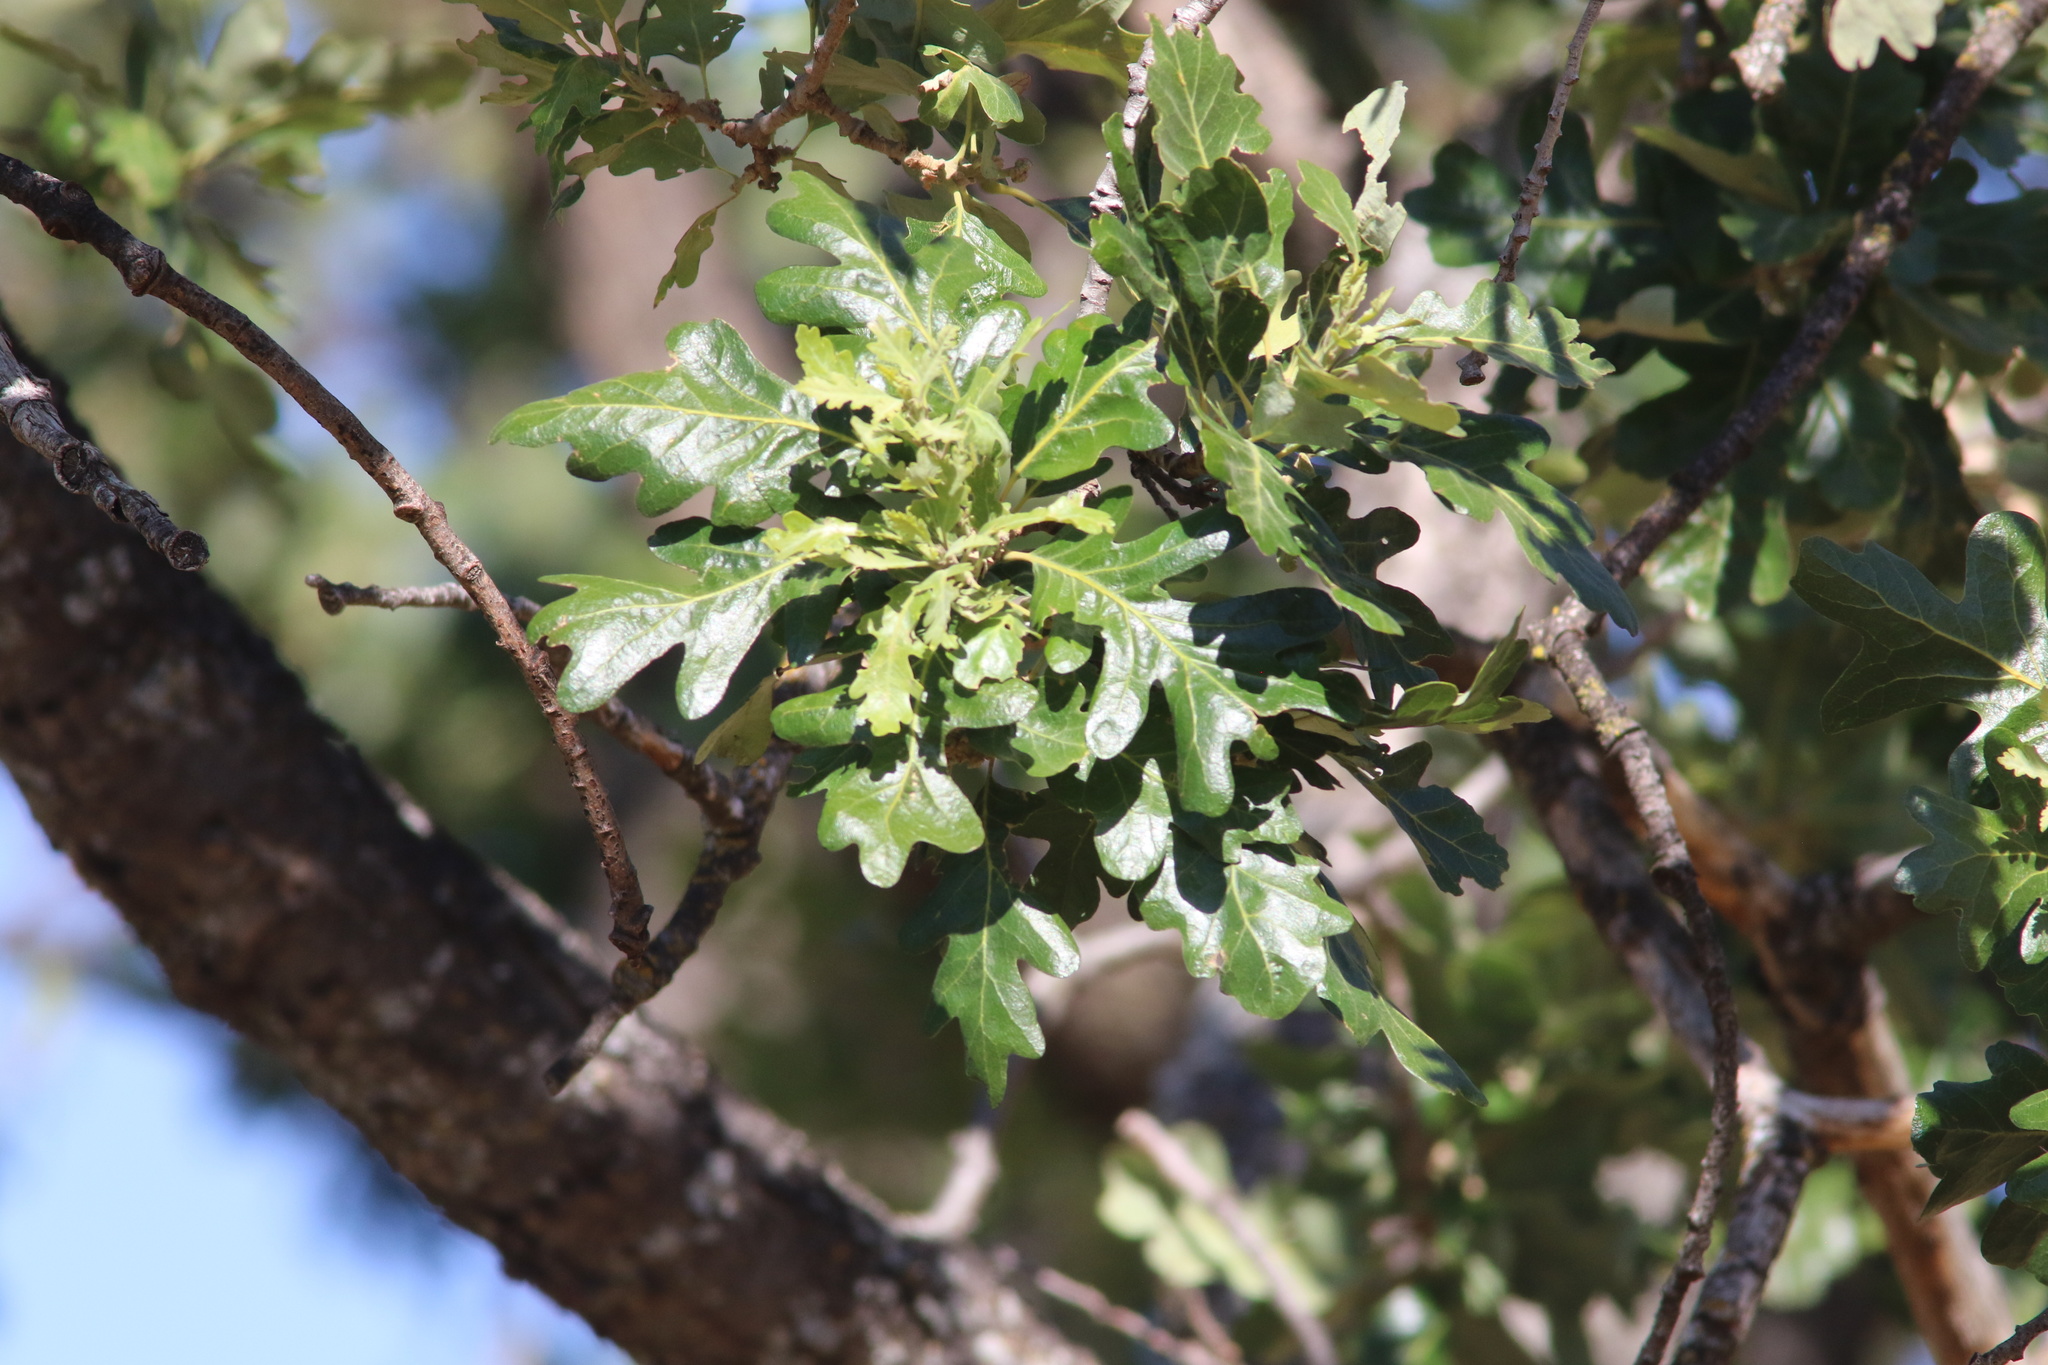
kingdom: Plantae
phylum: Tracheophyta
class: Magnoliopsida
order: Fagales
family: Fagaceae
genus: Quercus
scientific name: Quercus garryana
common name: Garry oak
